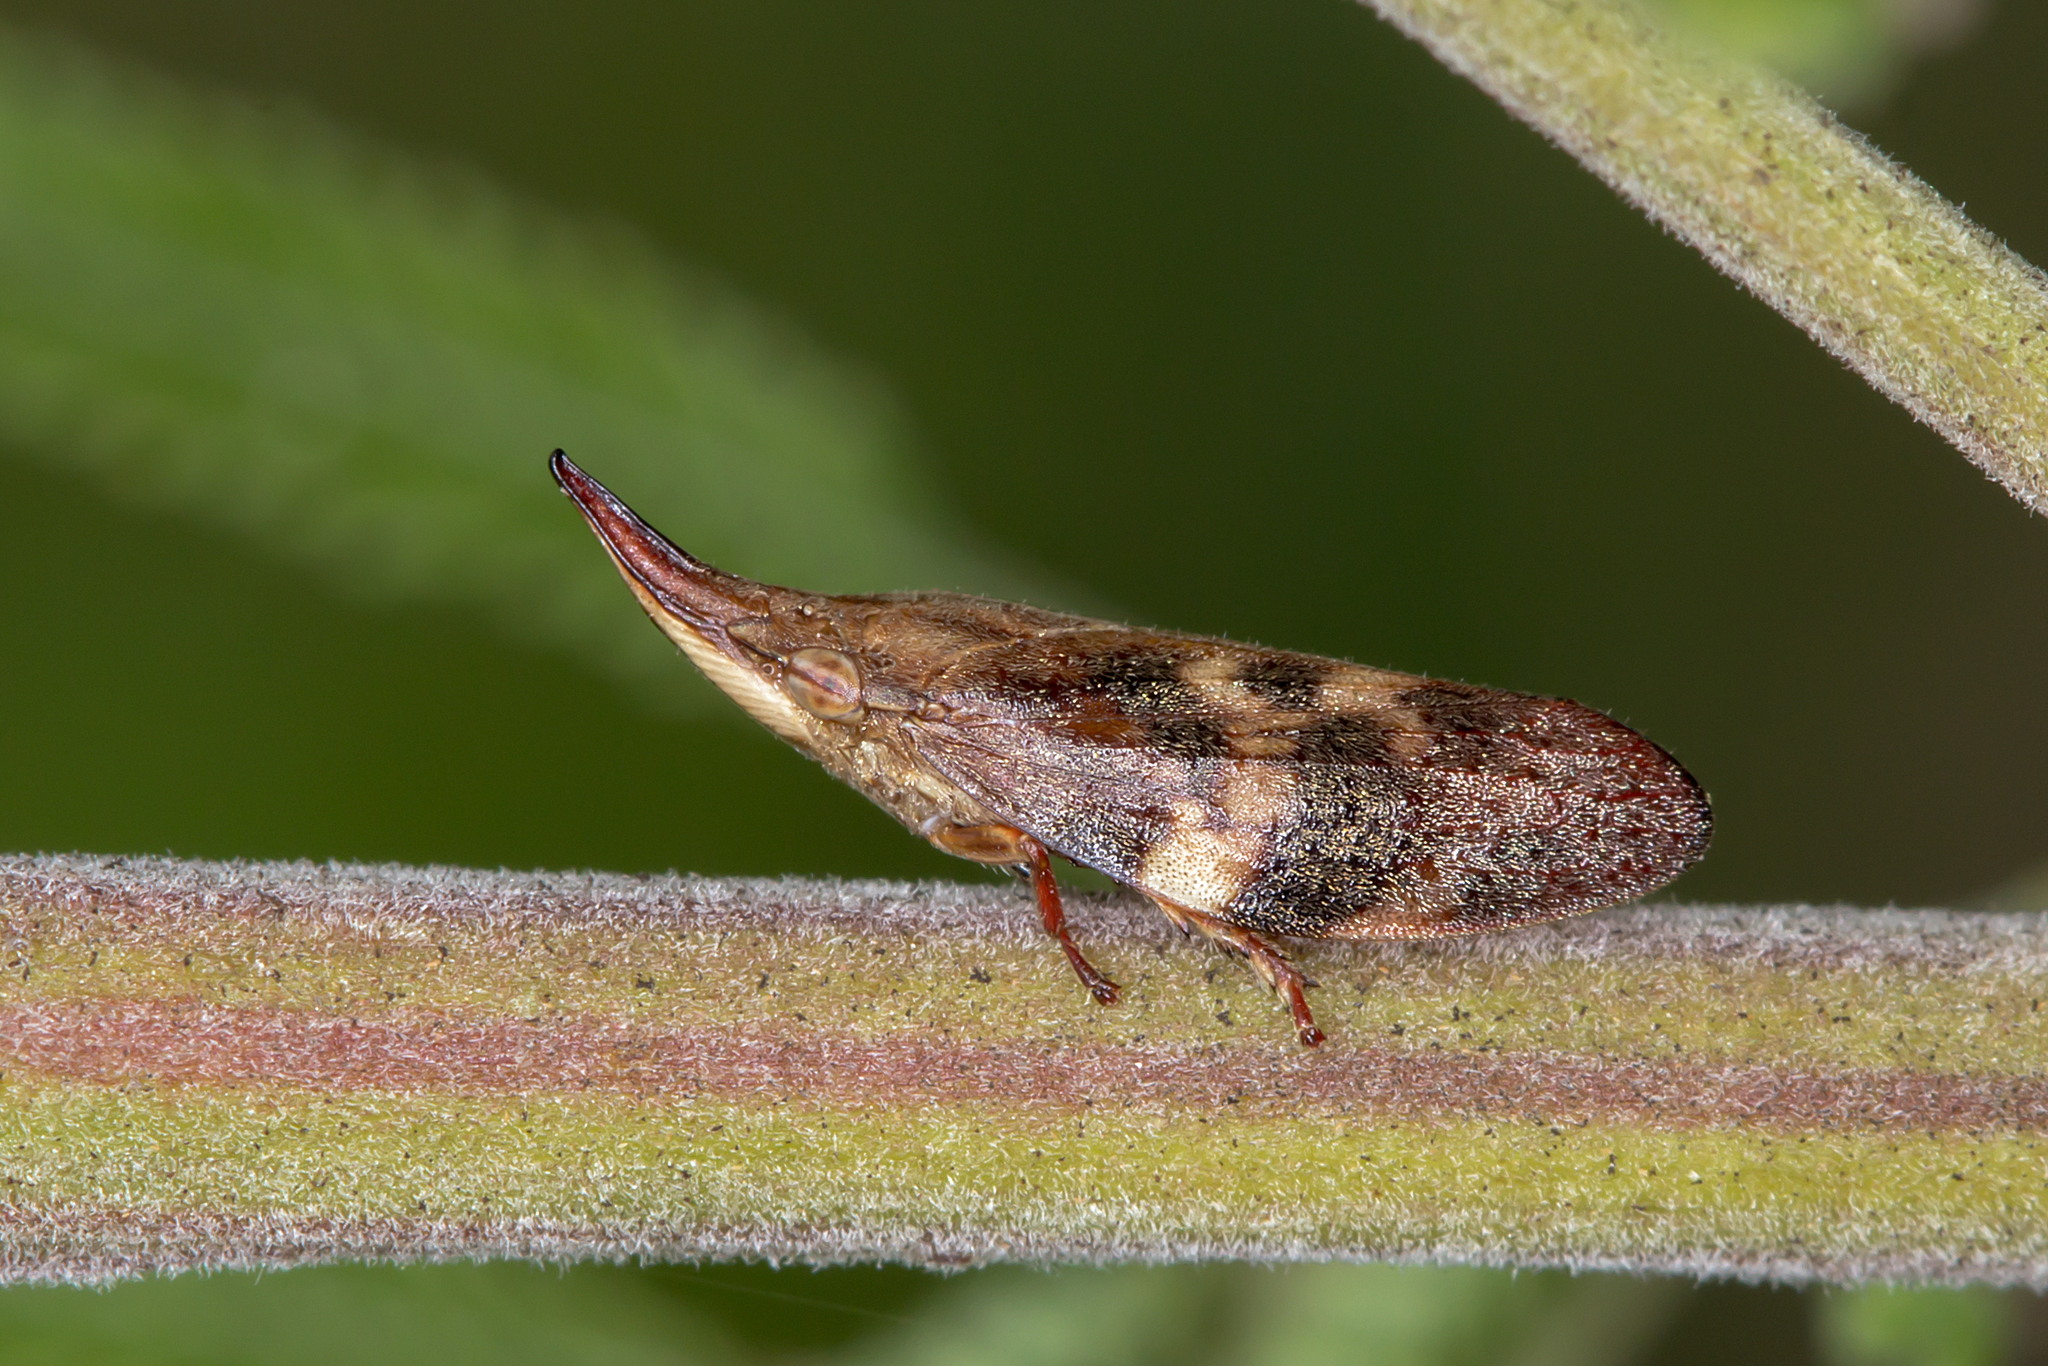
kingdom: Animalia
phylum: Arthropoda
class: Insecta
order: Hemiptera
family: Aphrophoridae
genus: Philagra
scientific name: Philagra parva
